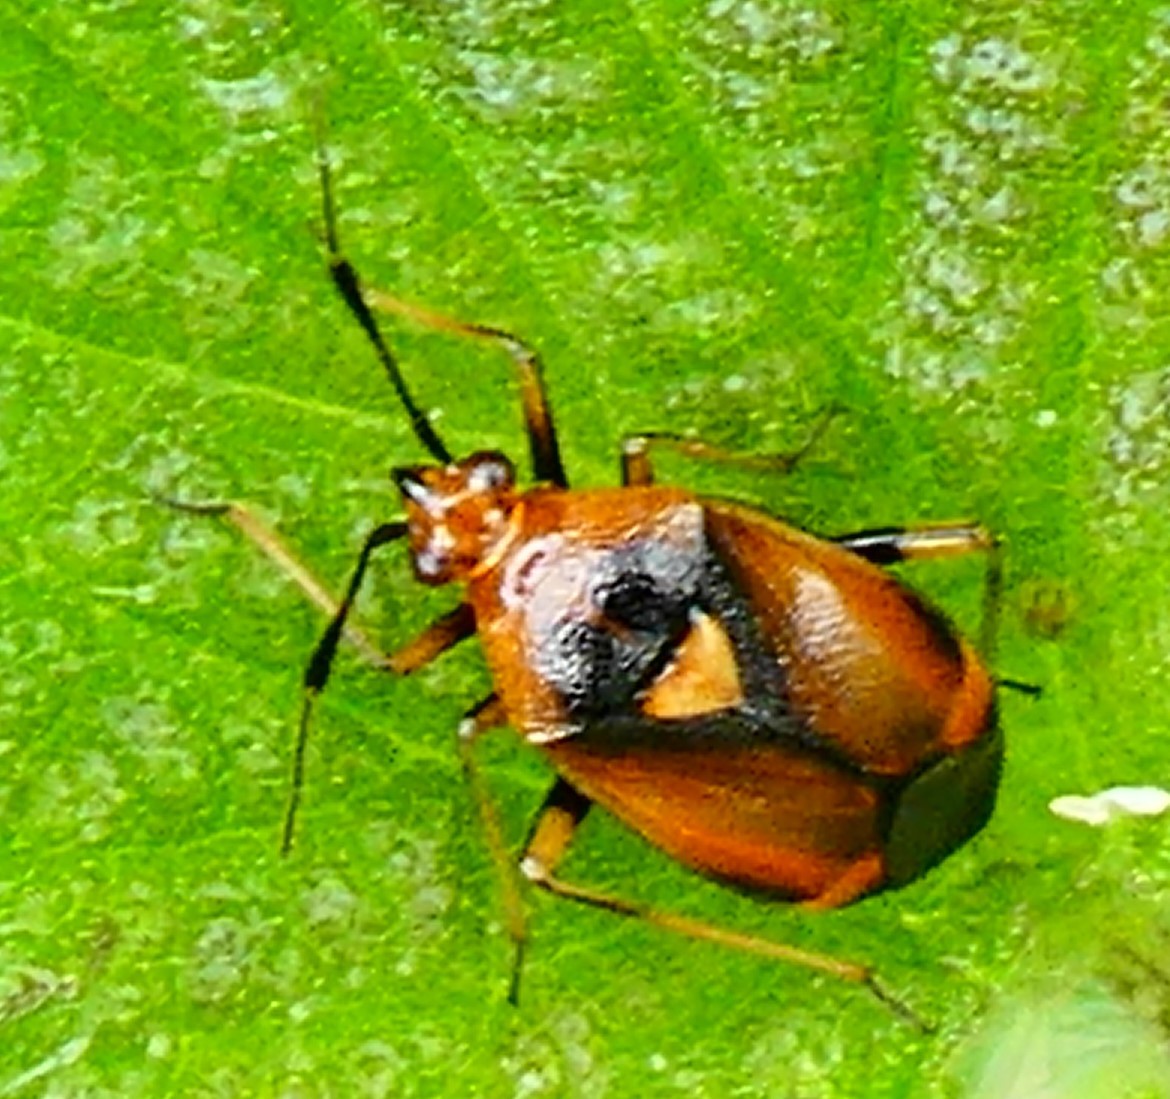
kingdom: Animalia
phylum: Arthropoda
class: Insecta
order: Hemiptera
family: Miridae
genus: Deraeocoris
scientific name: Deraeocoris ruber
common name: Plant bug
